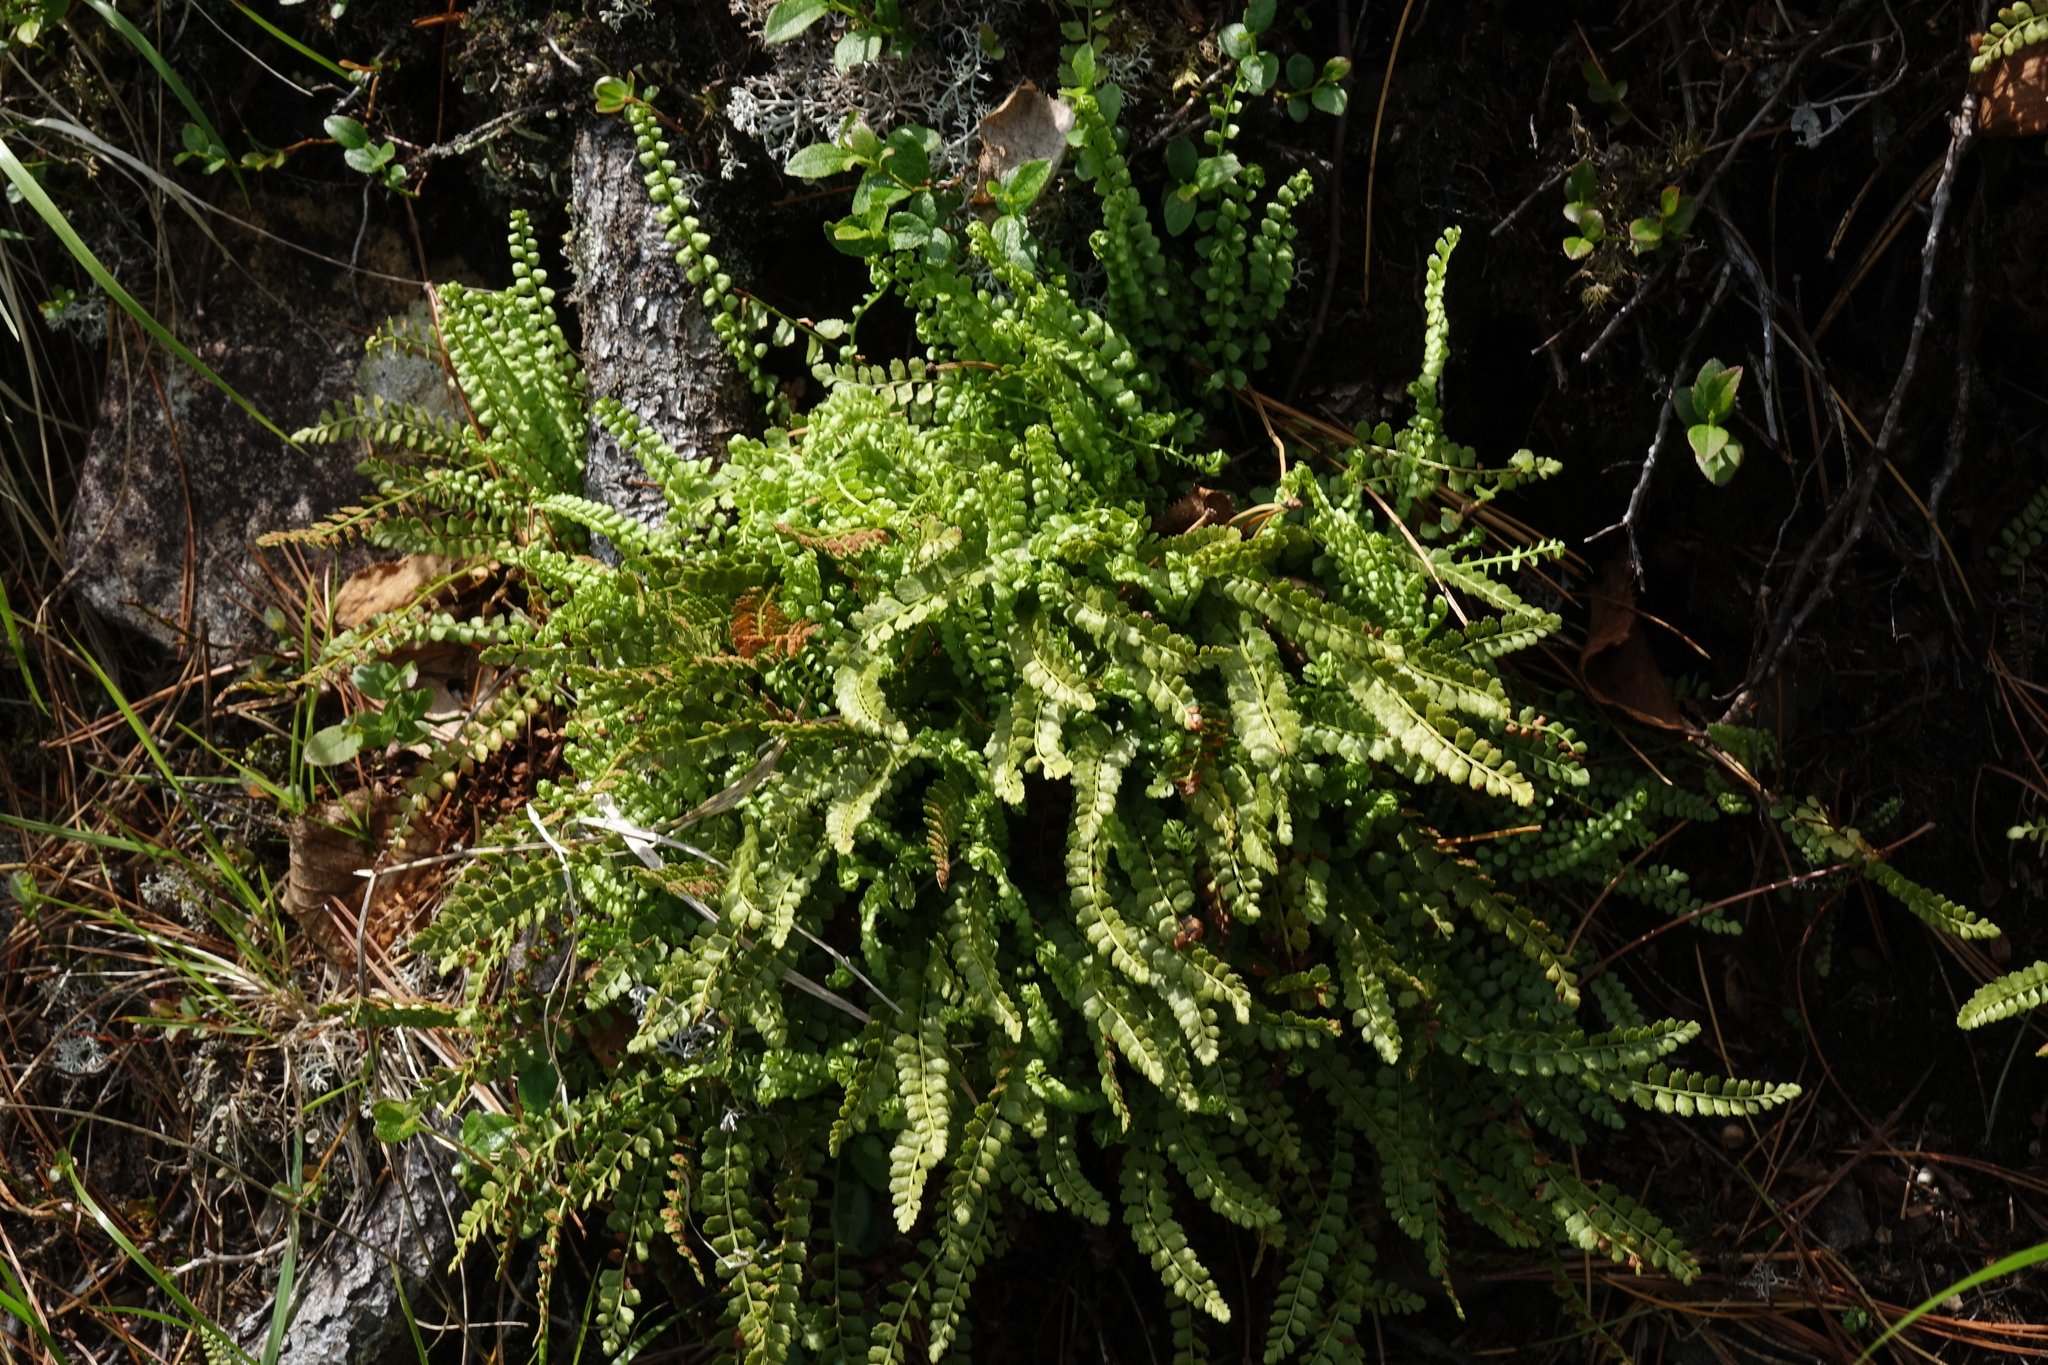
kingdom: Plantae
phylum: Tracheophyta
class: Polypodiopsida
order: Polypodiales
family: Aspleniaceae
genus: Asplenium
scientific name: Asplenium viride
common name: Green spleenwort
